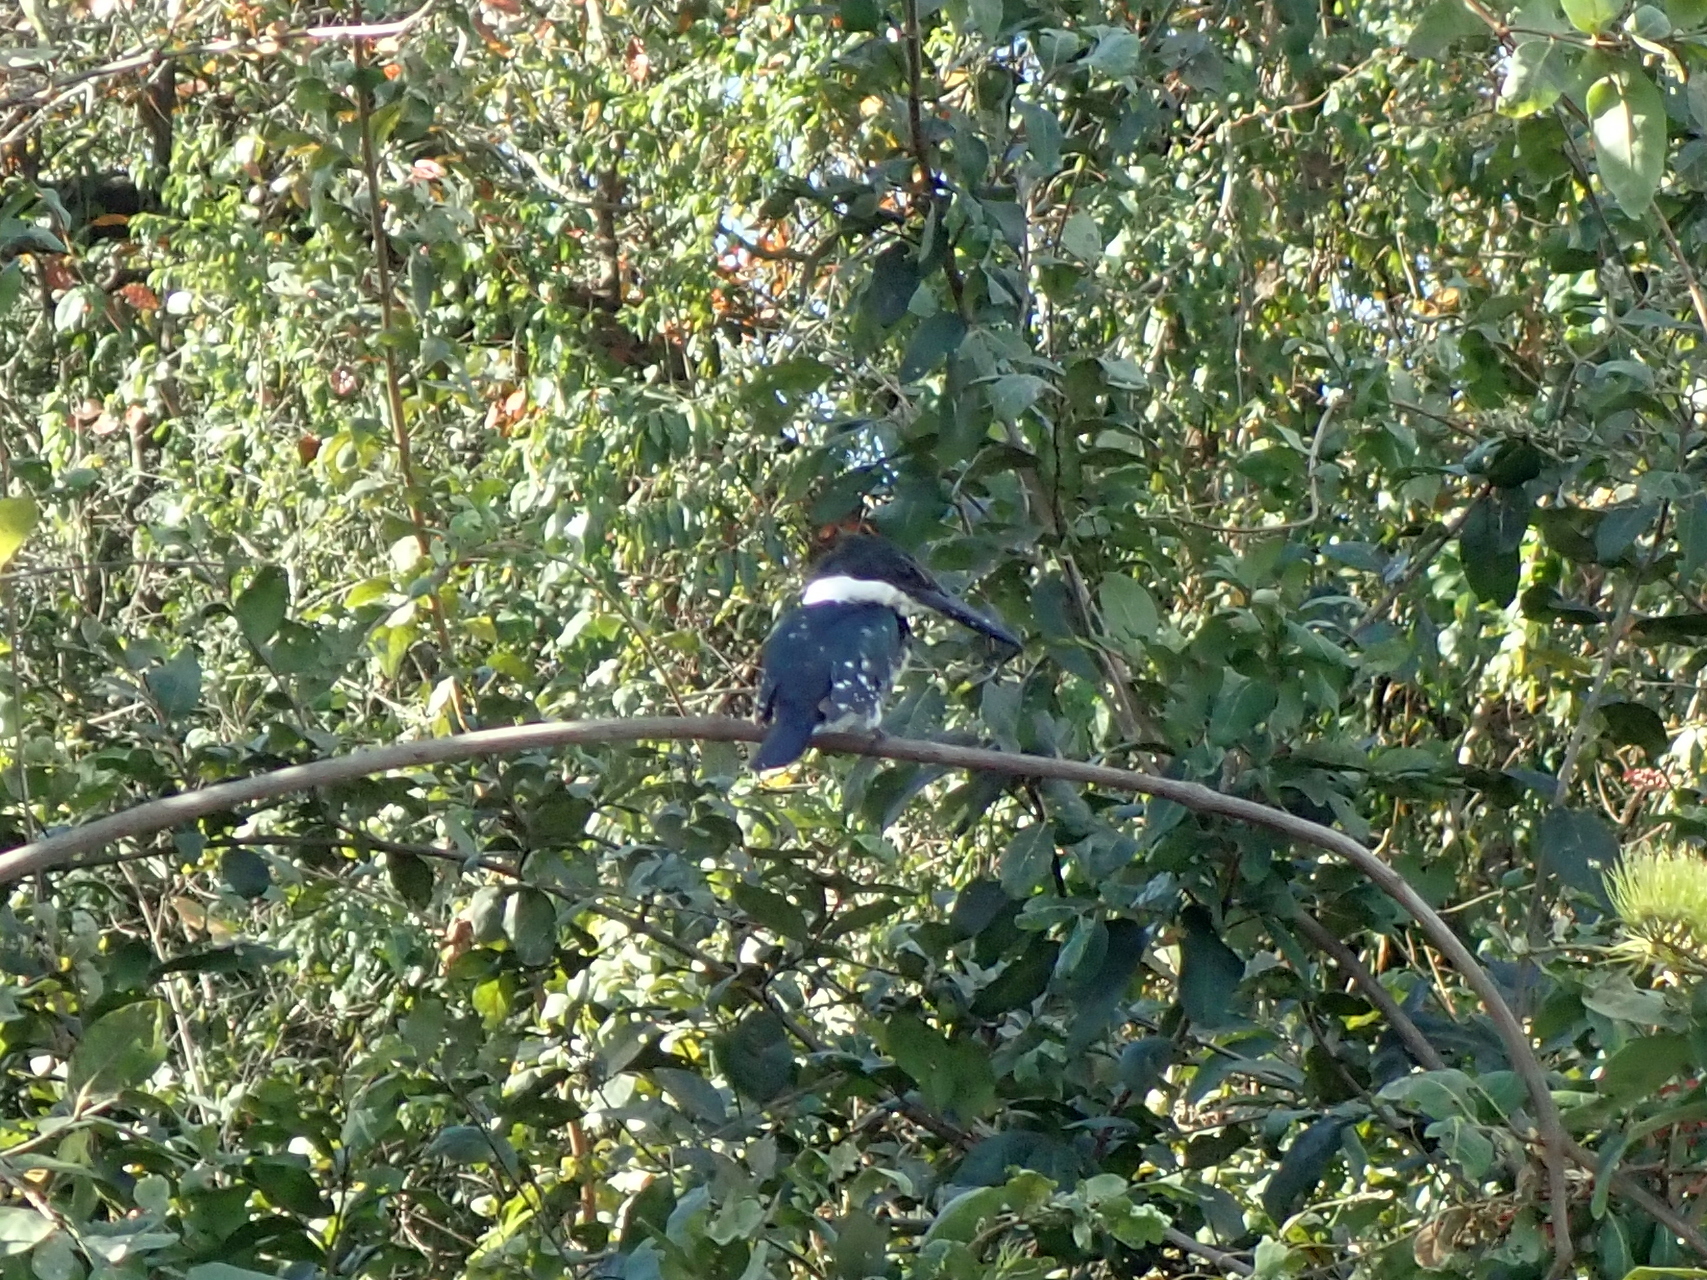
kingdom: Animalia
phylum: Chordata
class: Aves
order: Coraciiformes
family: Alcedinidae
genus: Chloroceryle
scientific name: Chloroceryle americana
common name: Green kingfisher
